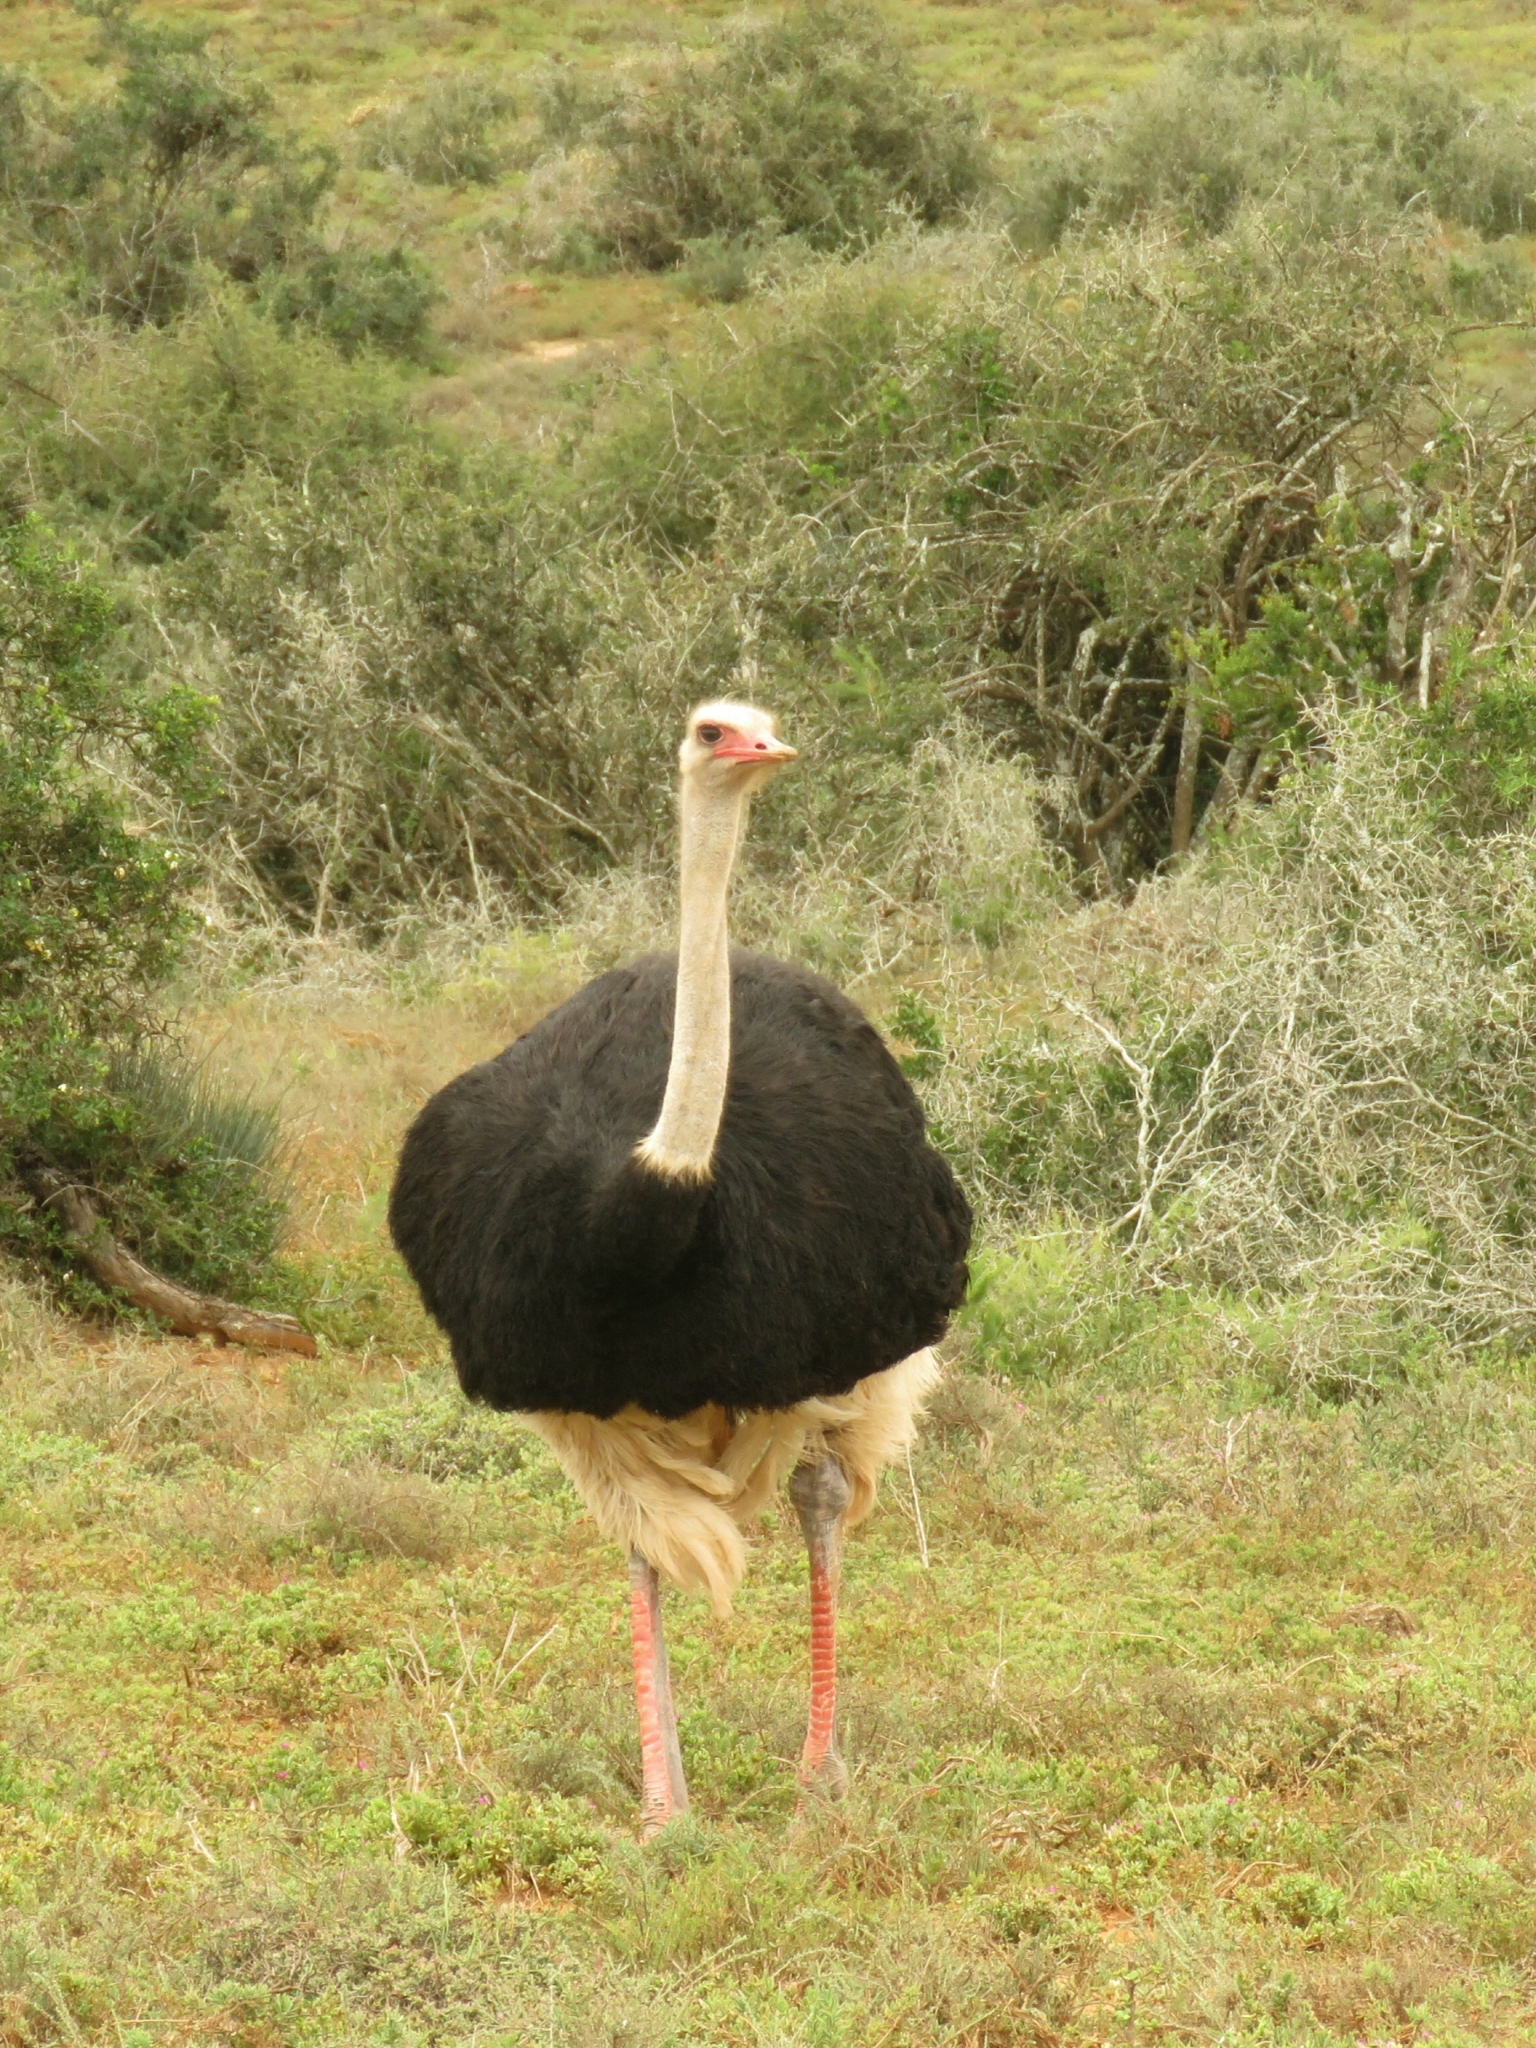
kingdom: Animalia
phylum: Chordata
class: Aves
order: Struthioniformes
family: Struthionidae
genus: Struthio
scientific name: Struthio camelus
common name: Common ostrich
